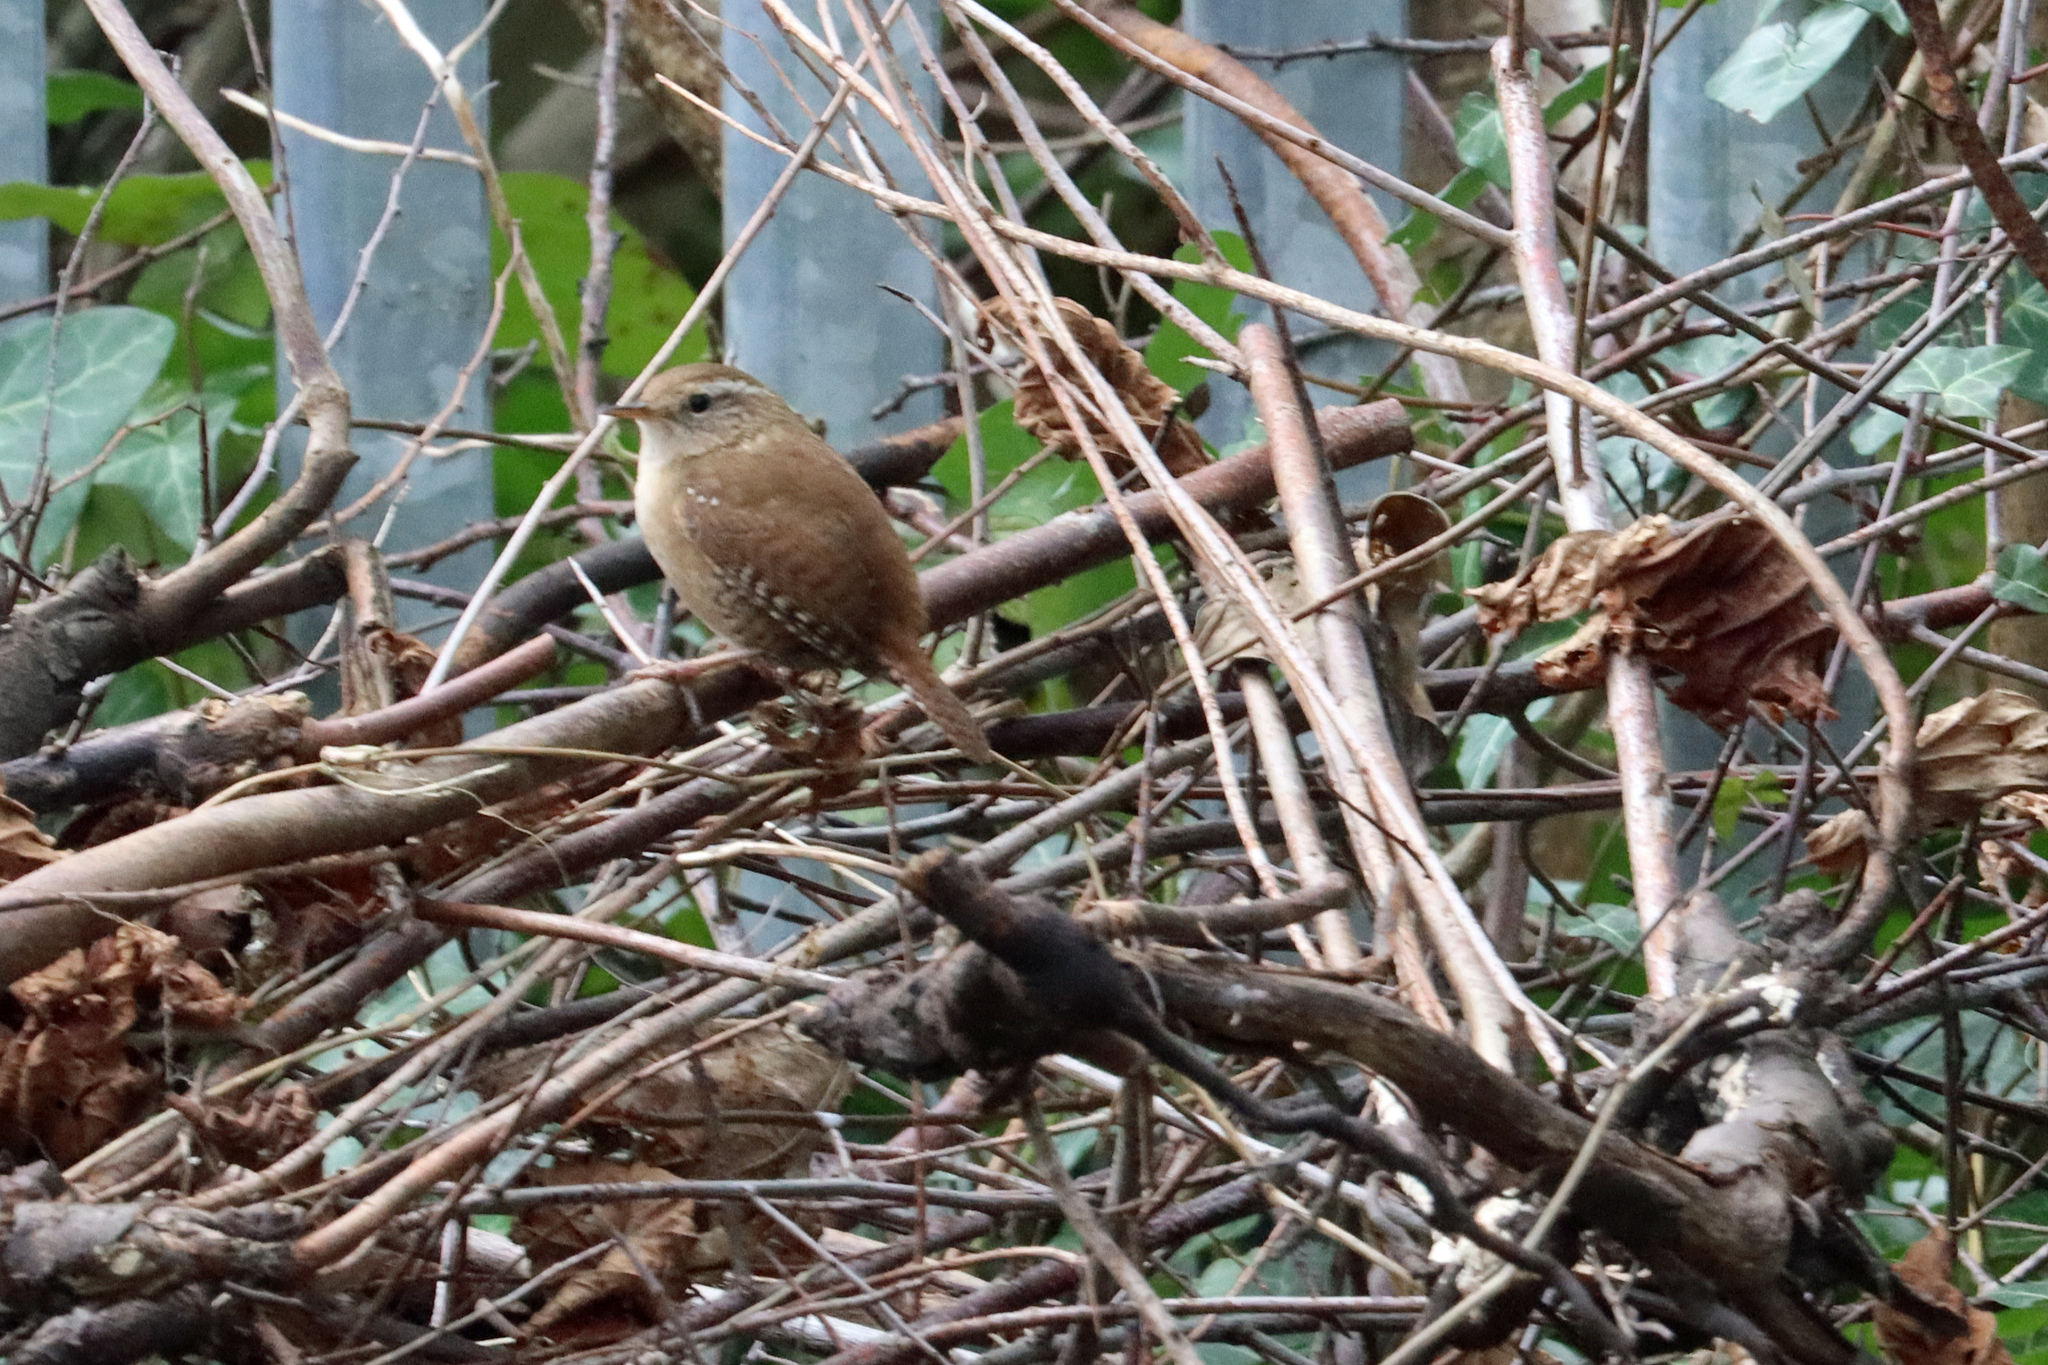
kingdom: Animalia
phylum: Chordata
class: Aves
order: Passeriformes
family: Troglodytidae
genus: Troglodytes
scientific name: Troglodytes troglodytes
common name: Eurasian wren
